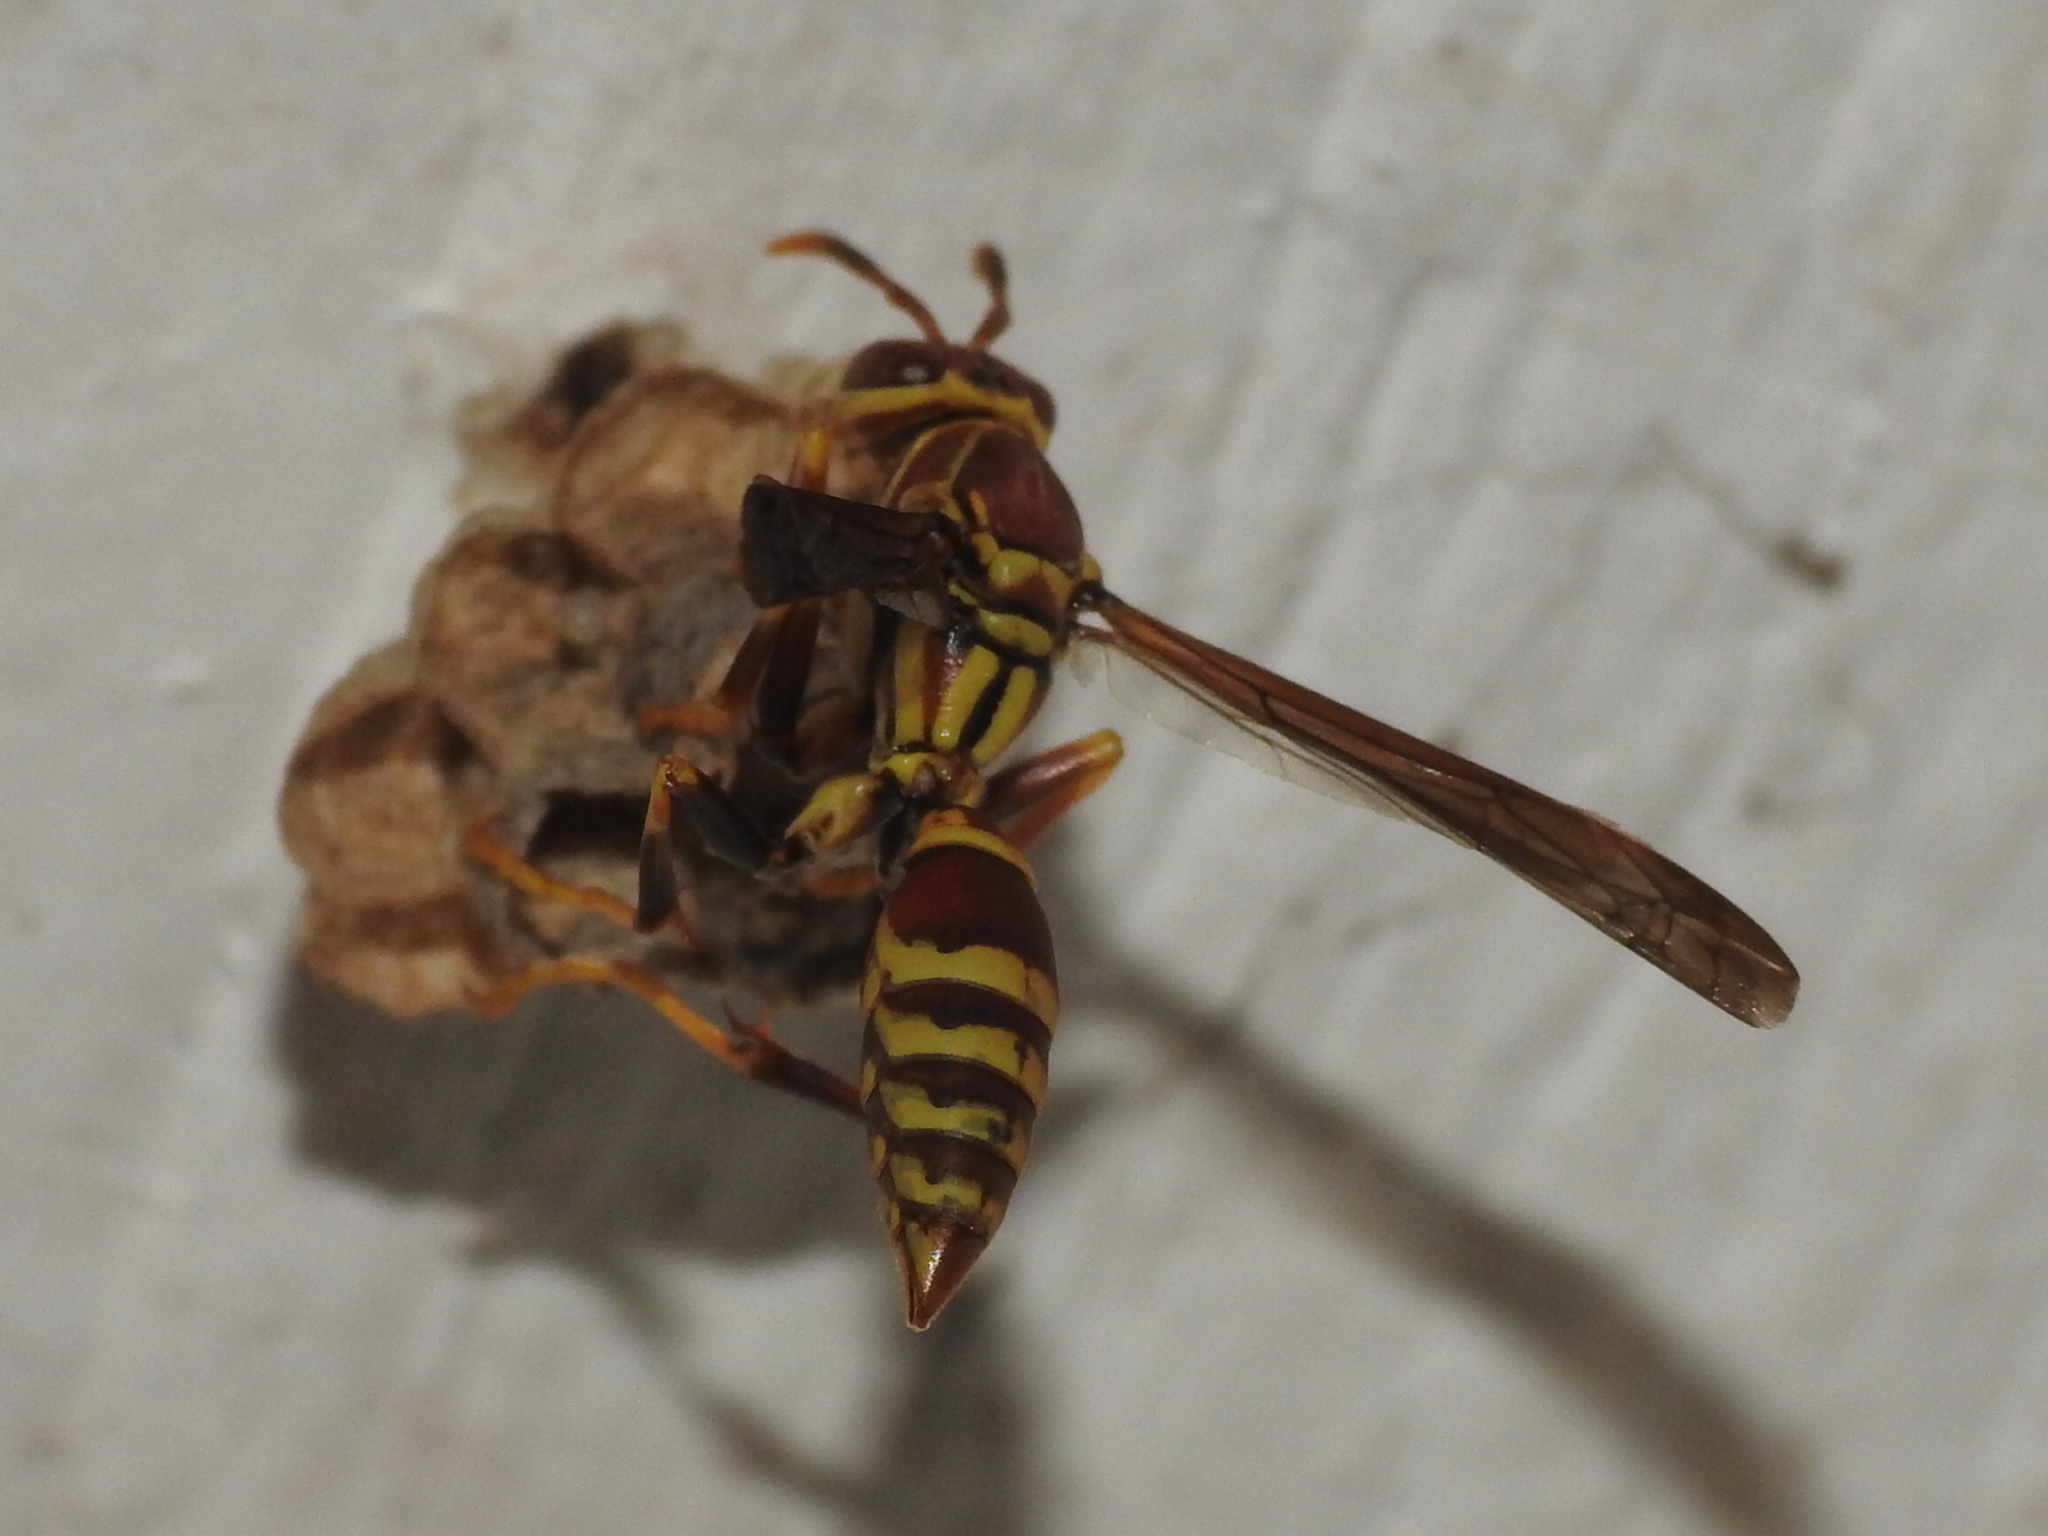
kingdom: Animalia
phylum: Arthropoda
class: Insecta
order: Hymenoptera
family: Eumenidae
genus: Polistes
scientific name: Polistes exclamans
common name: Paper wasp
